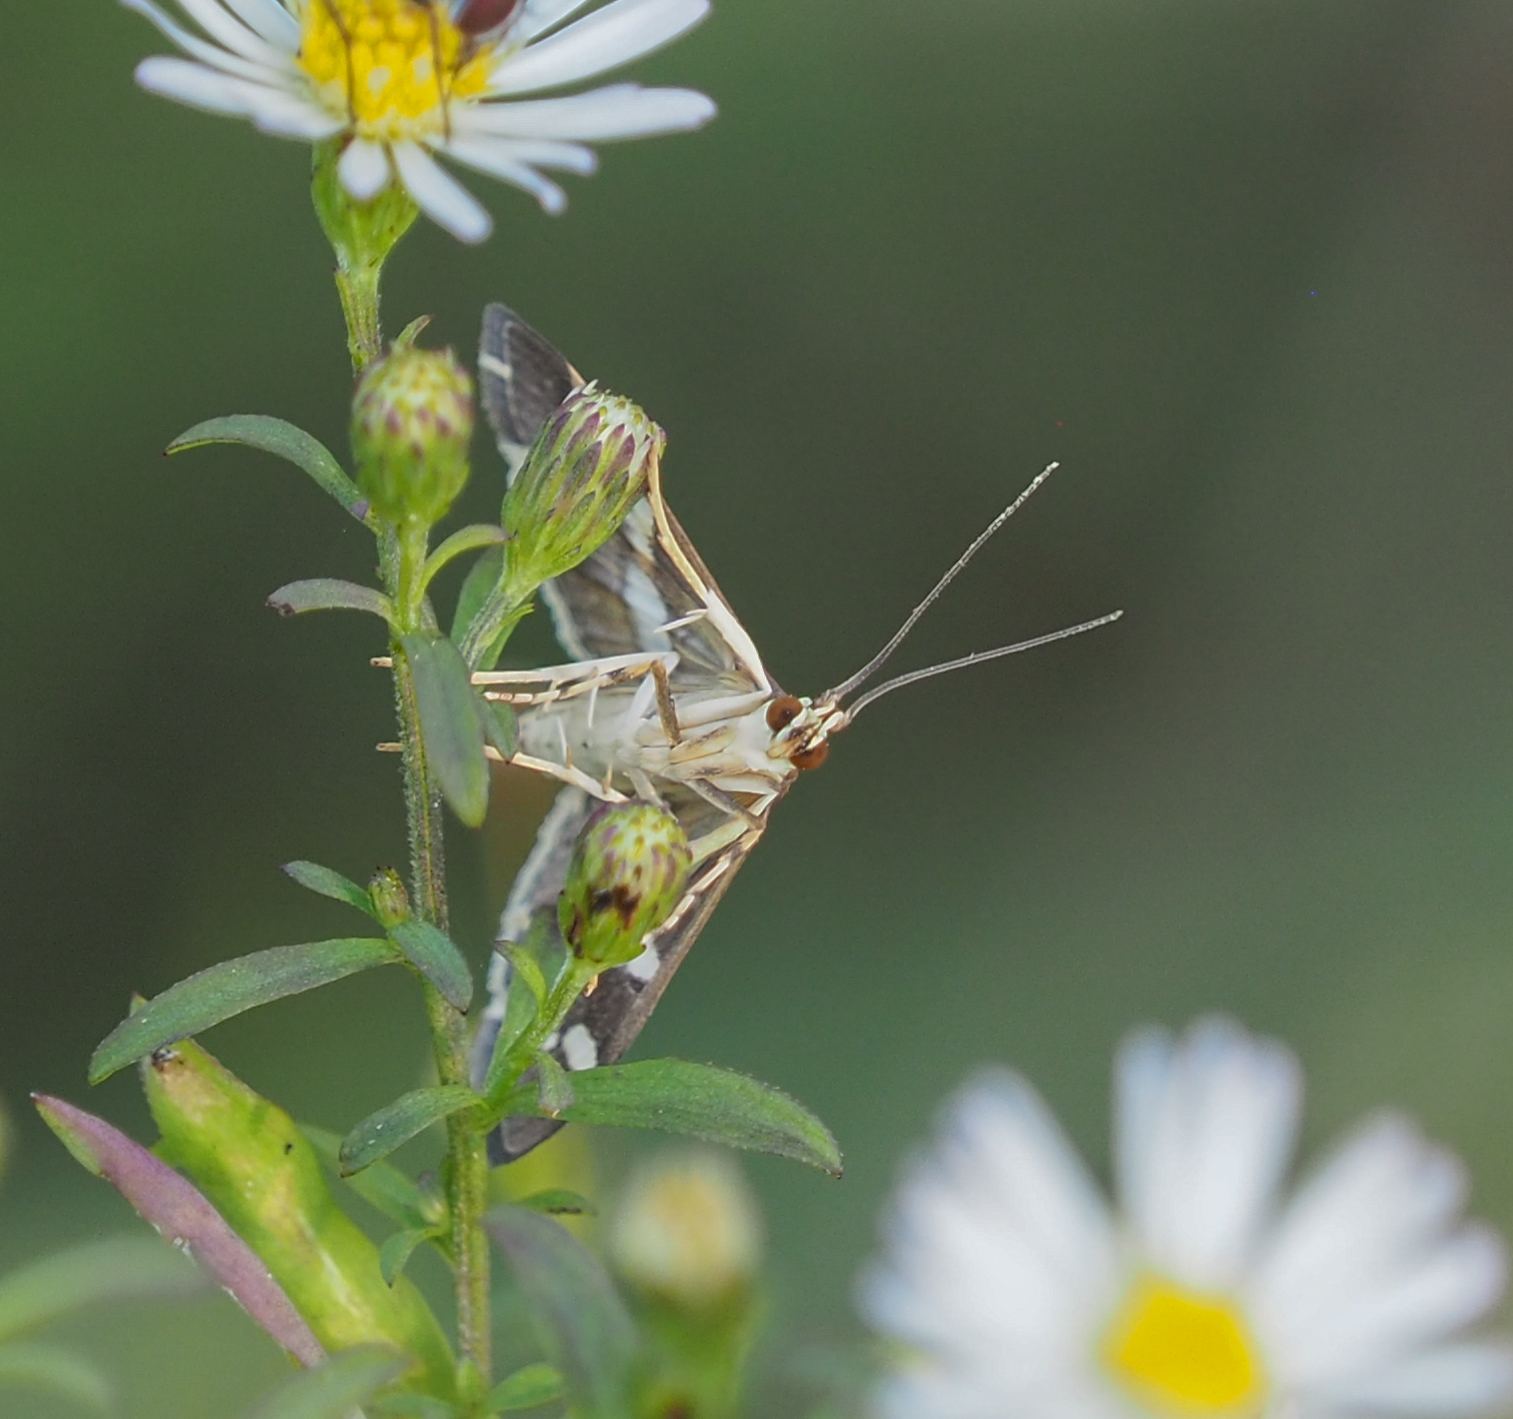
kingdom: Animalia
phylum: Arthropoda
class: Insecta
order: Lepidoptera
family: Crambidae
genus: Spoladea
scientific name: Spoladea recurvalis
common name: Beet webworm moth
